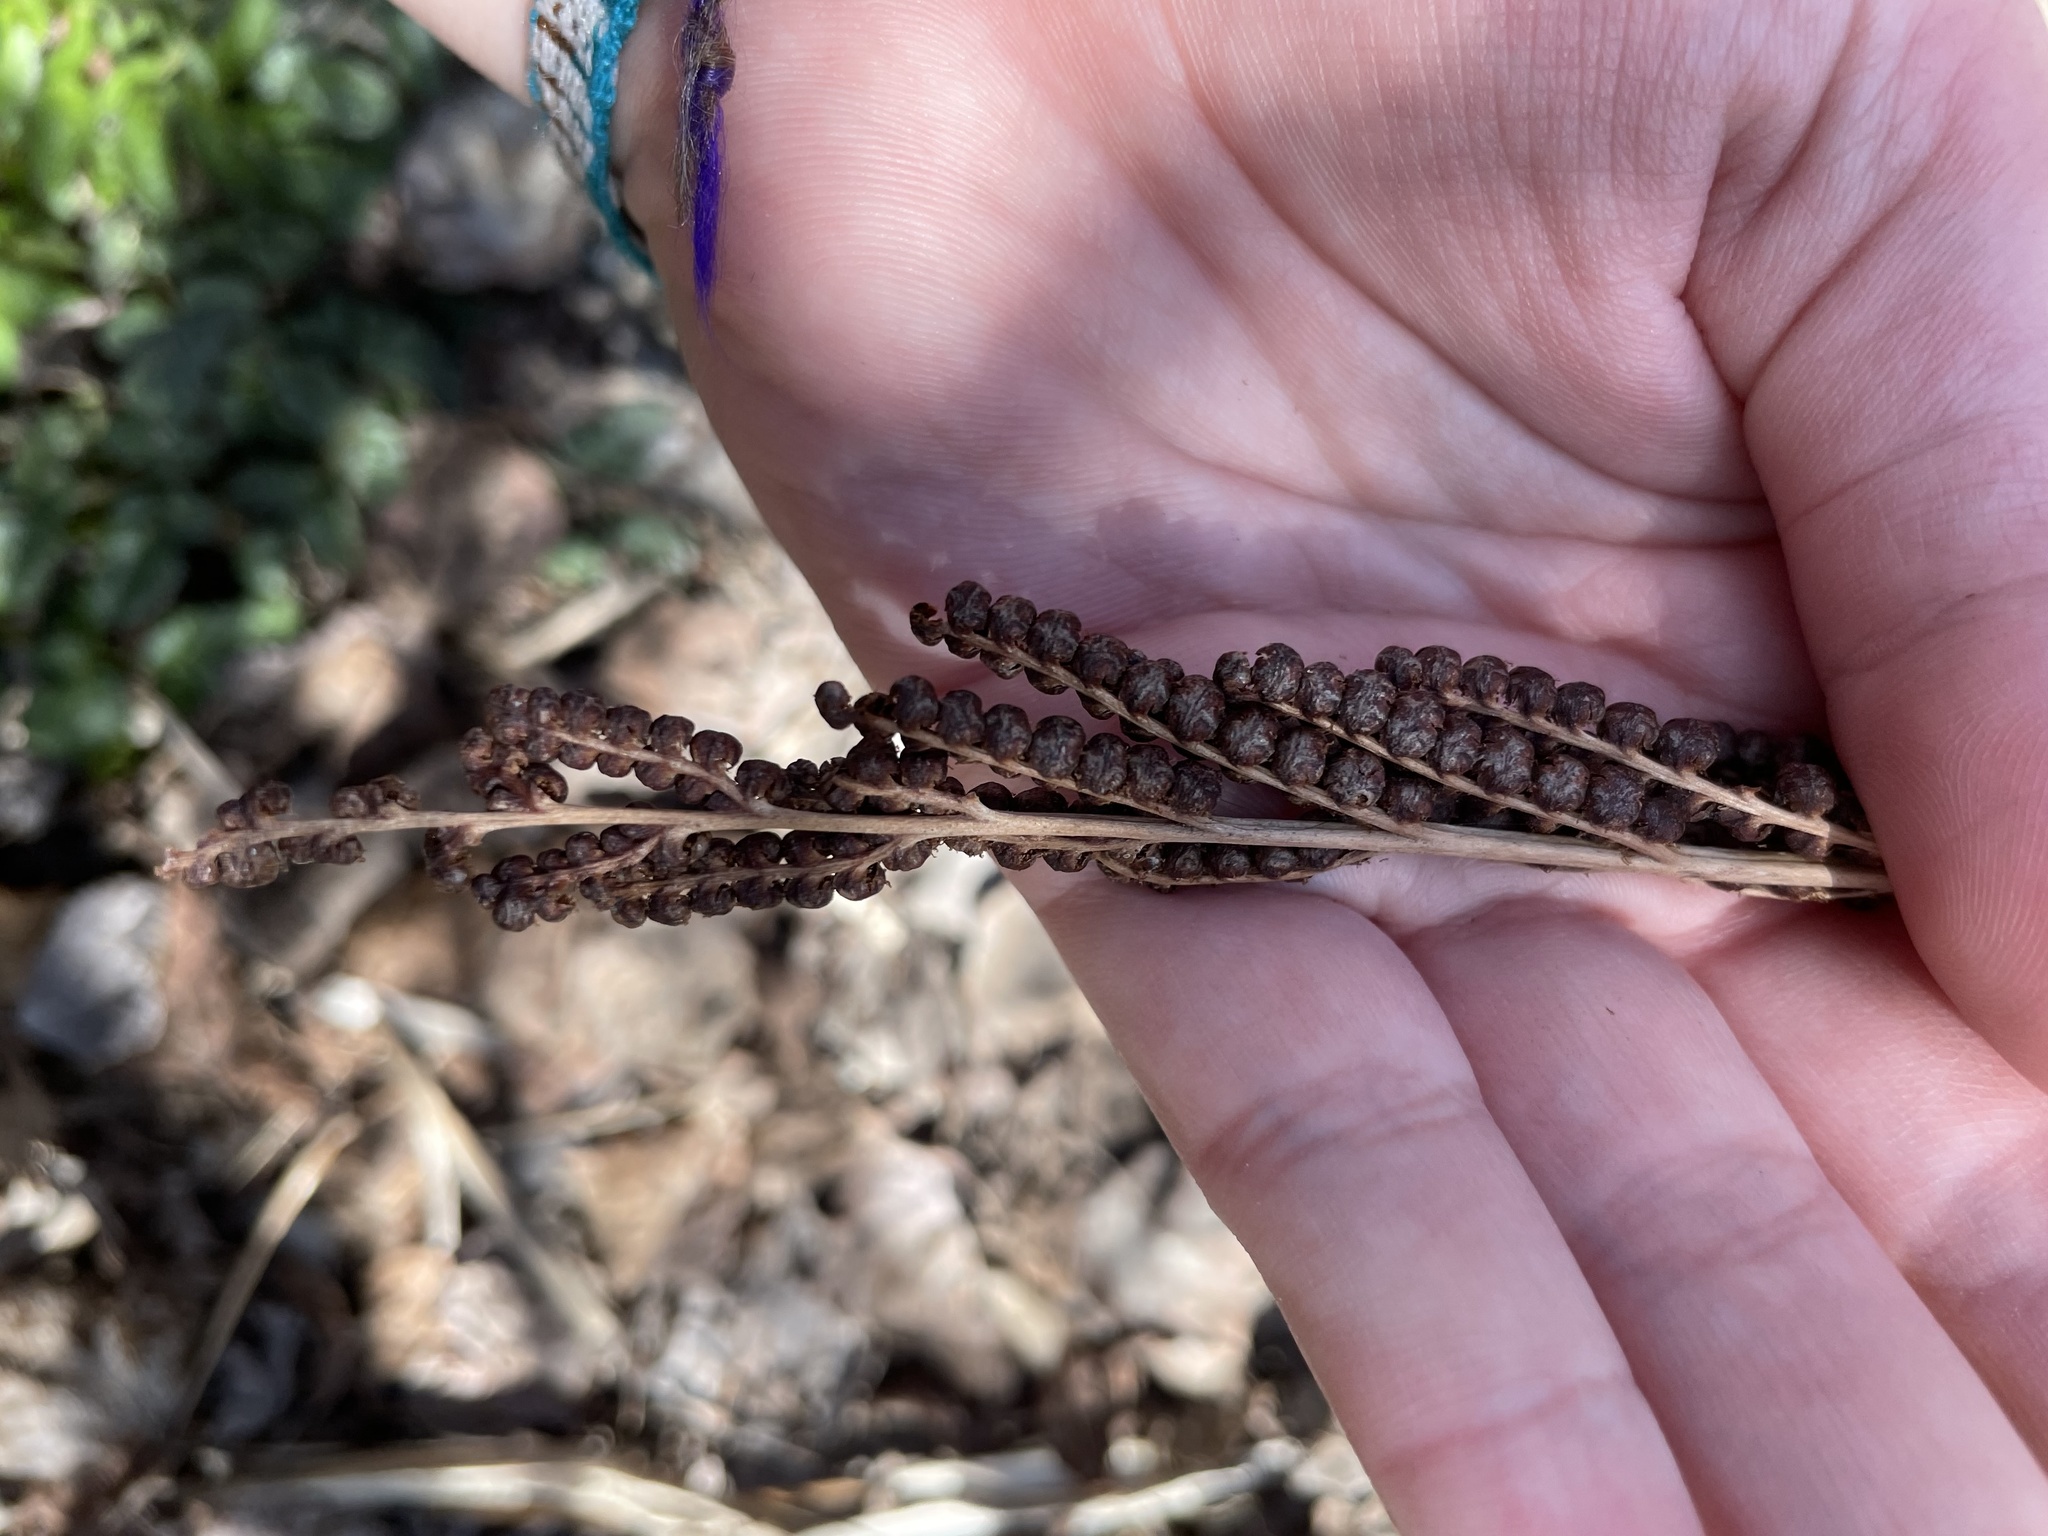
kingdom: Plantae
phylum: Tracheophyta
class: Polypodiopsida
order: Polypodiales
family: Onocleaceae
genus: Onoclea
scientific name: Onoclea sensibilis
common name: Sensitive fern
